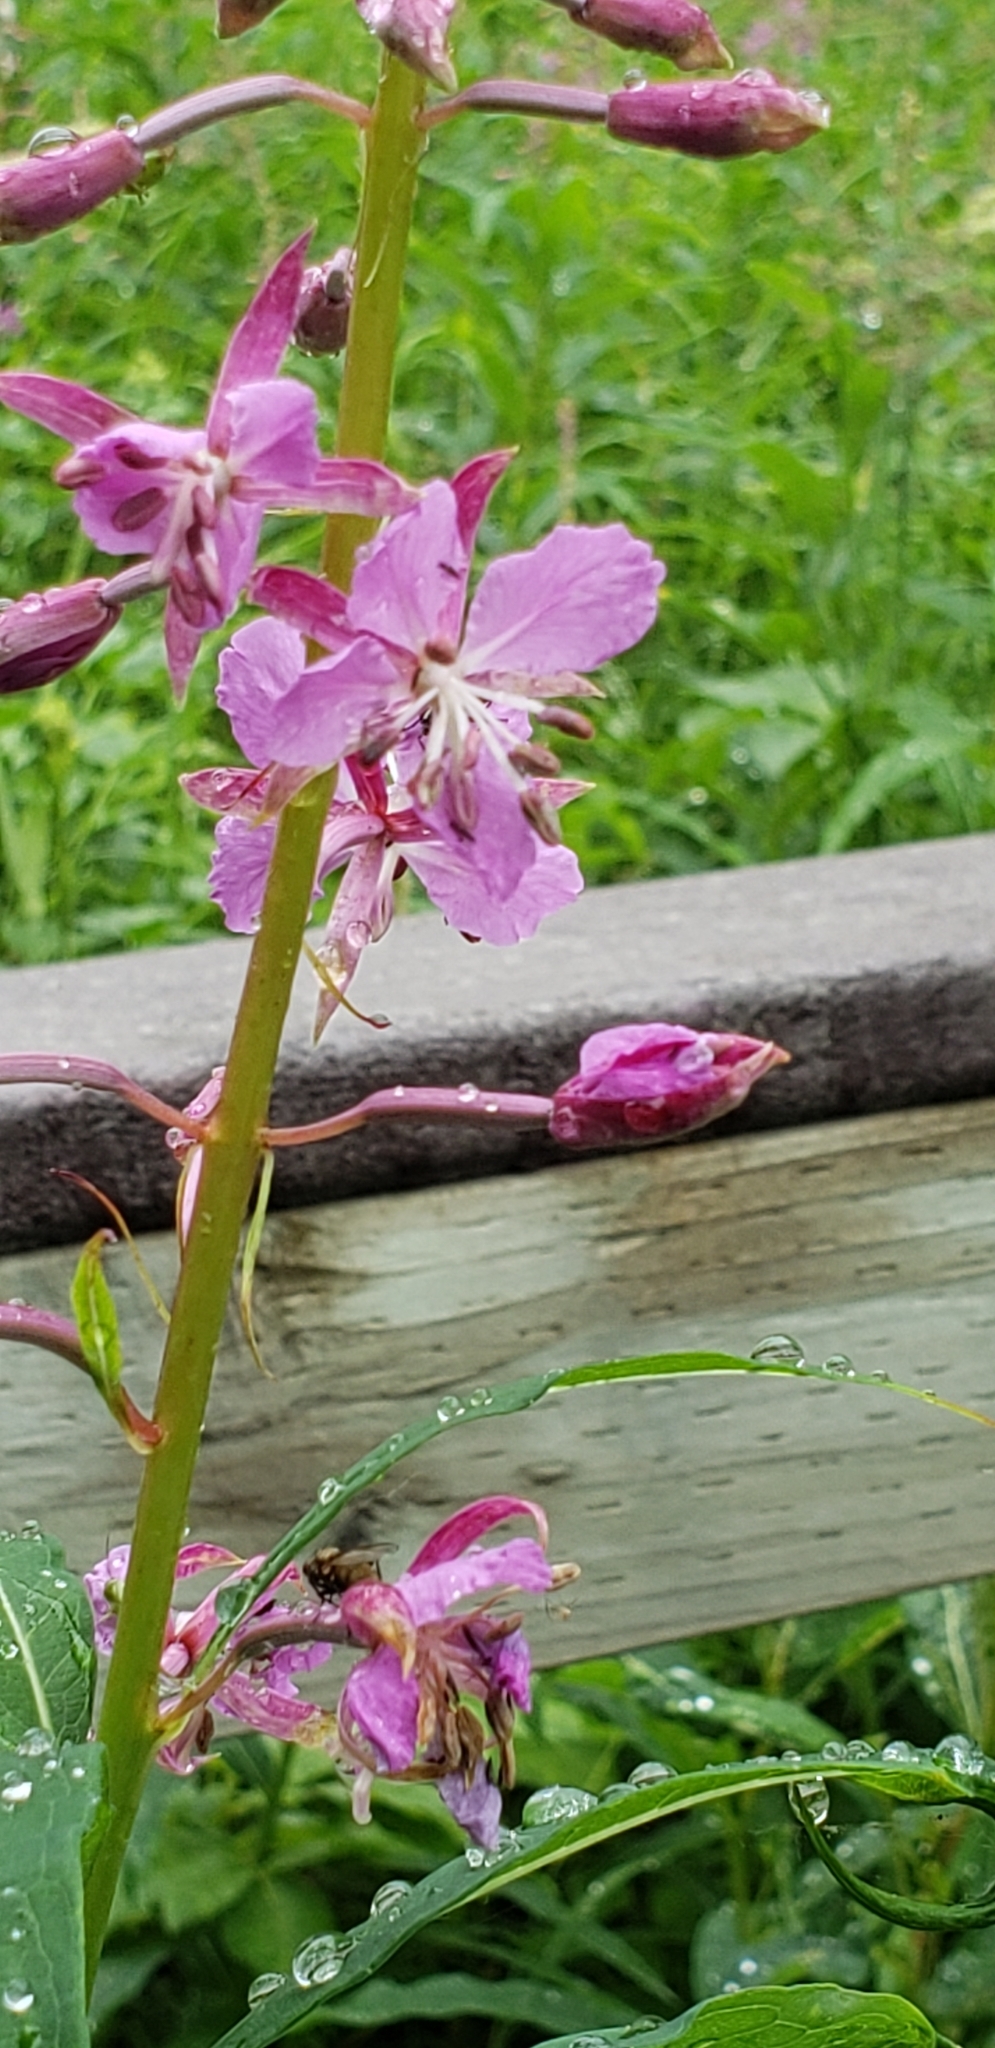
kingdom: Plantae
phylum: Tracheophyta
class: Magnoliopsida
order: Myrtales
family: Onagraceae
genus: Chamaenerion
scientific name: Chamaenerion angustifolium
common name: Fireweed
